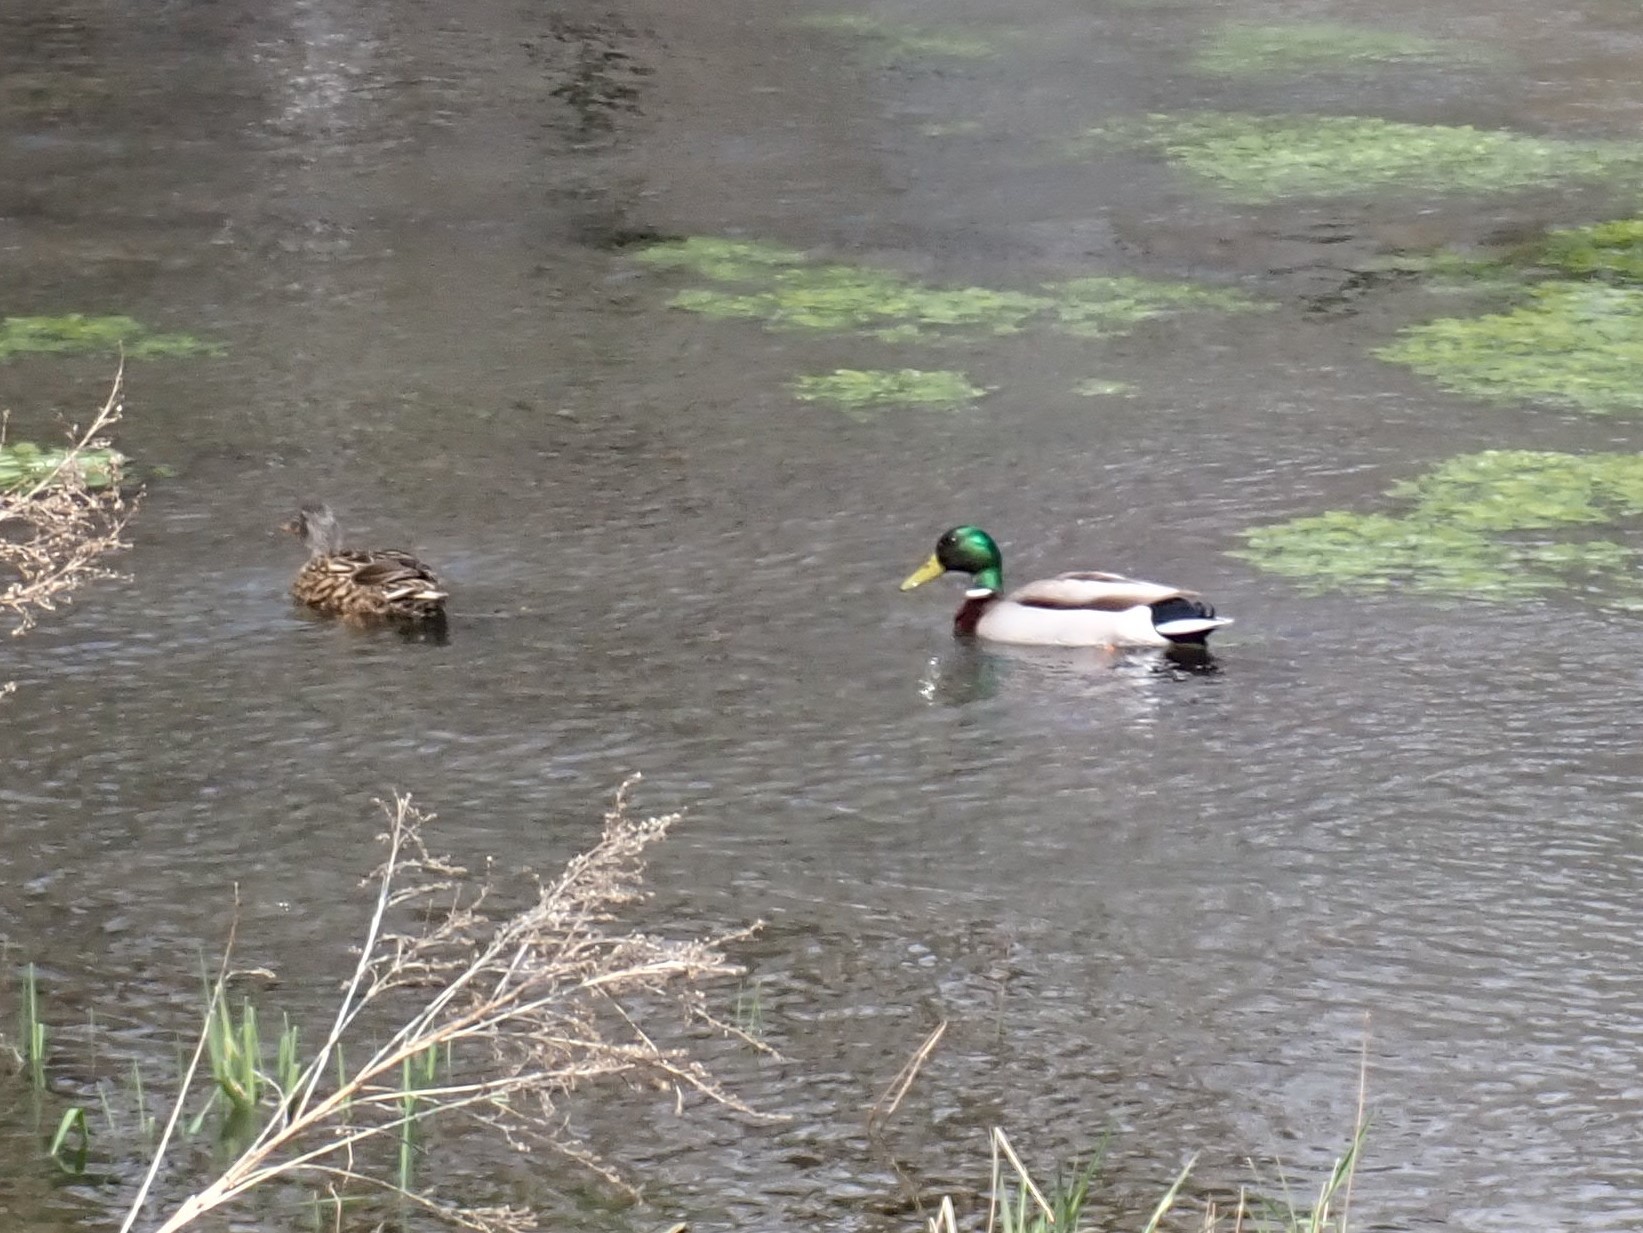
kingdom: Animalia
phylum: Chordata
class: Aves
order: Anseriformes
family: Anatidae
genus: Anas
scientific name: Anas platyrhynchos
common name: Mallard
